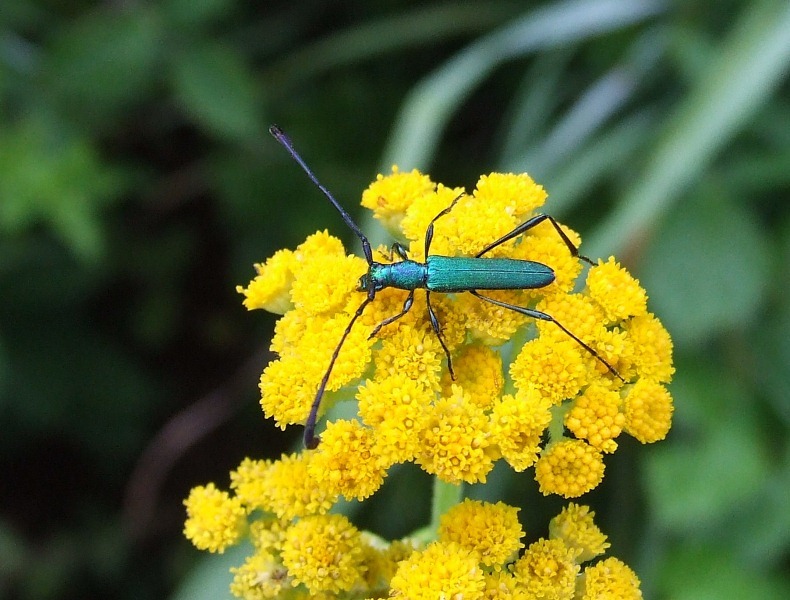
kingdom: Animalia
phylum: Arthropoda
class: Insecta
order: Coleoptera
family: Cerambycidae
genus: Hypocrites
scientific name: Hypocrites
